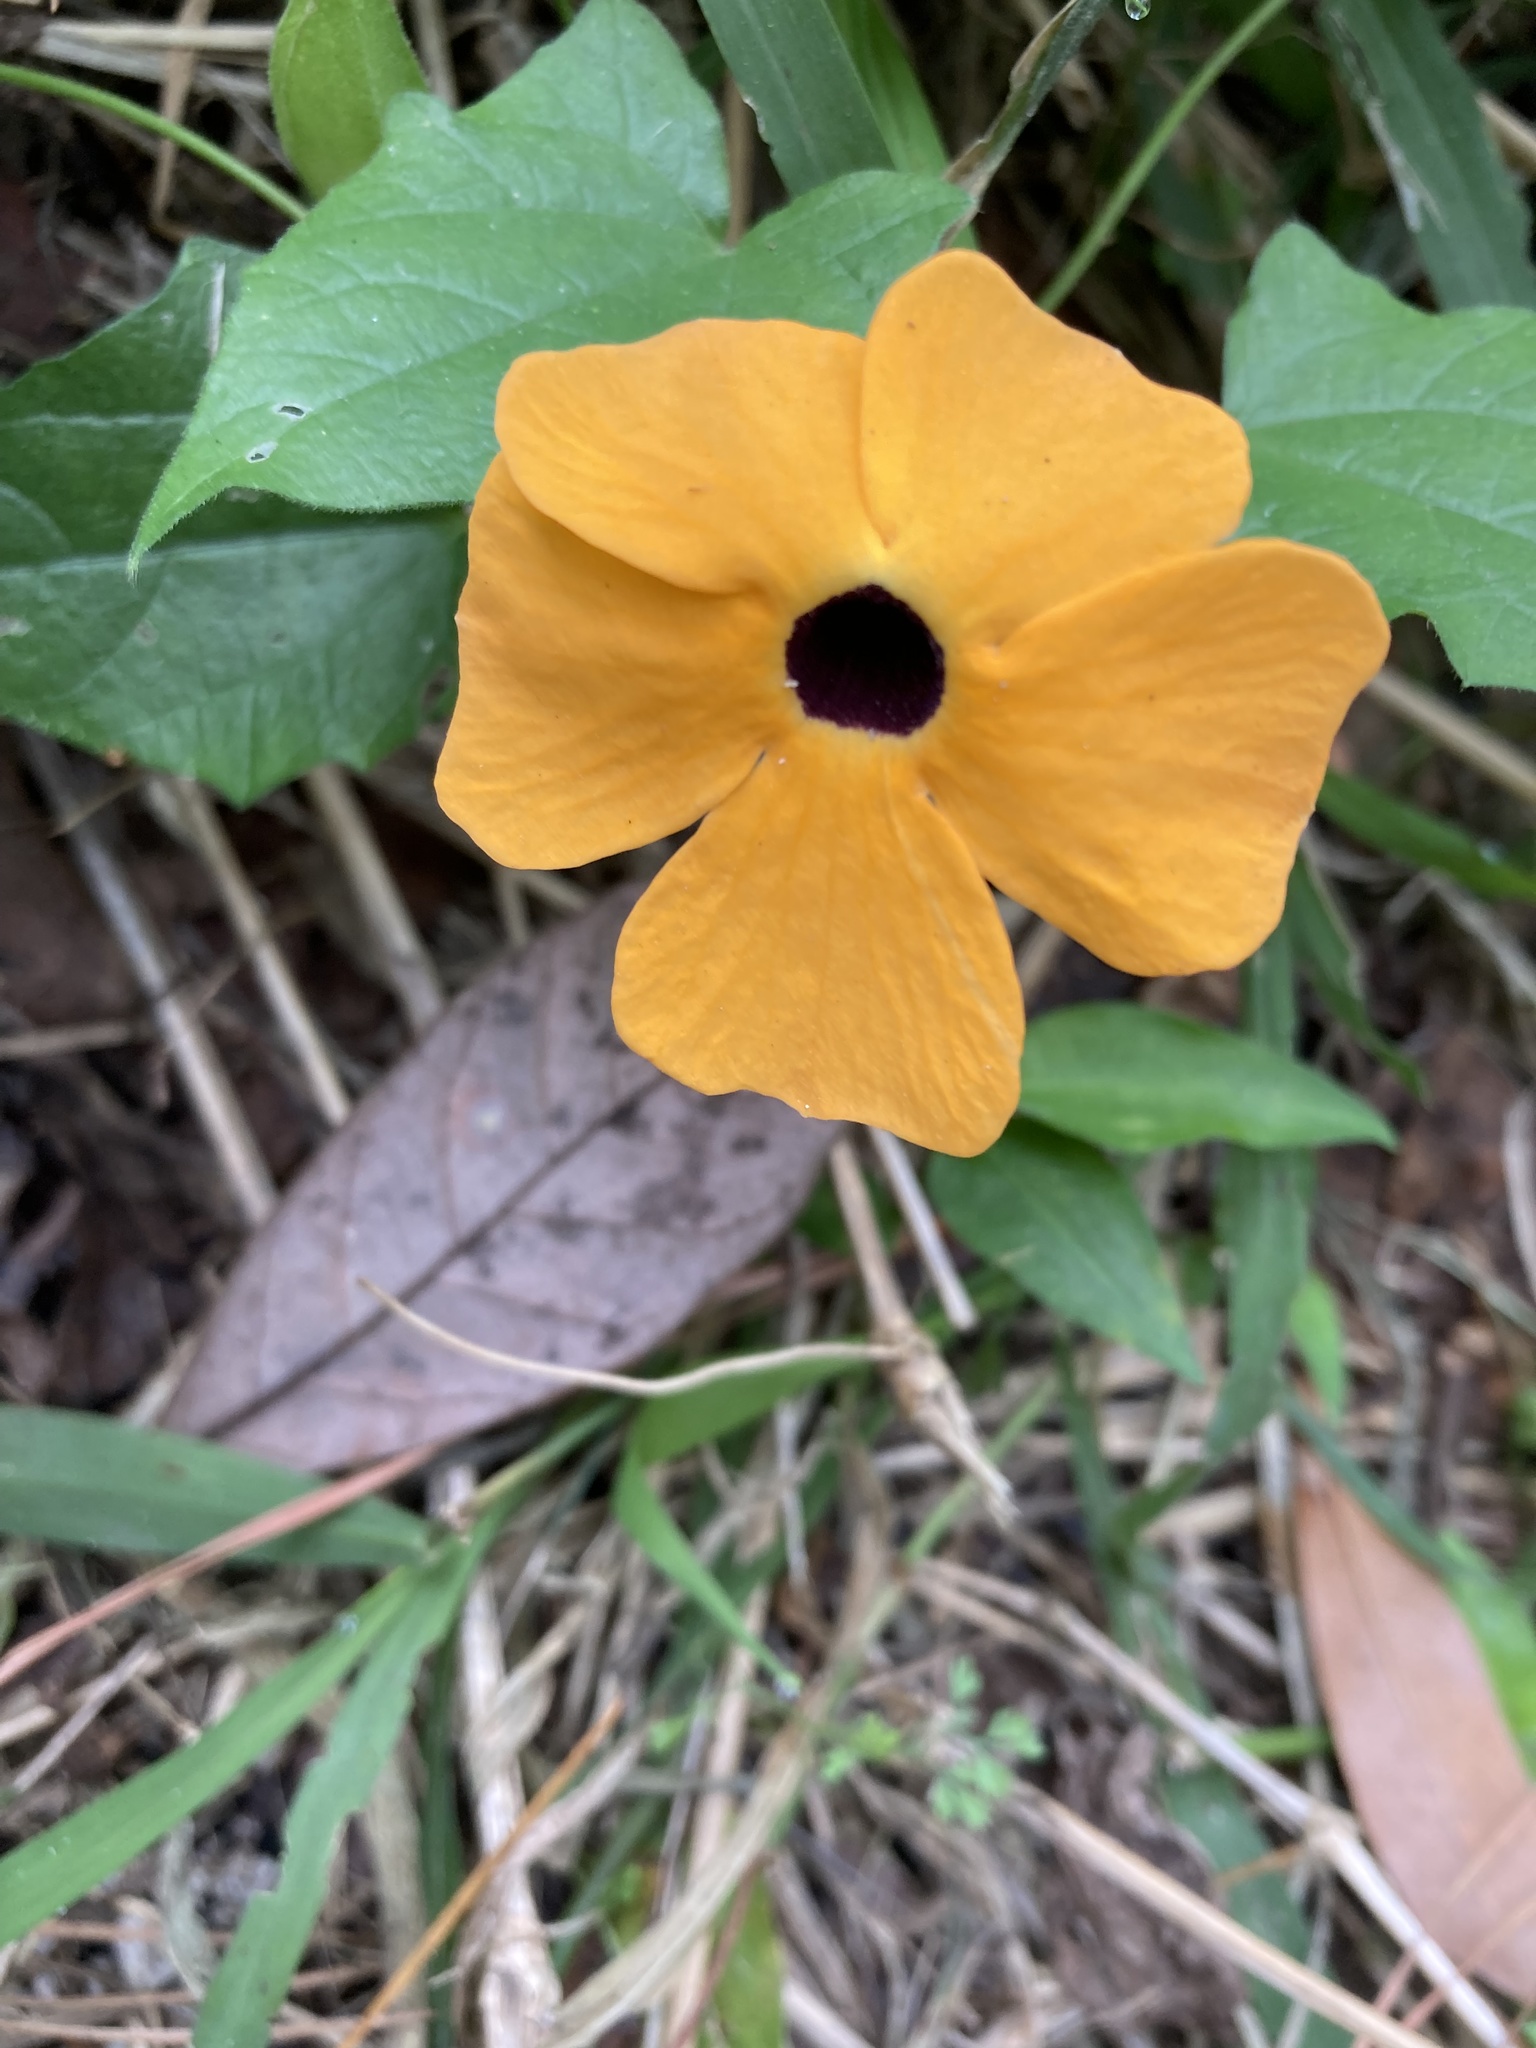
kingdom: Plantae
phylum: Tracheophyta
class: Magnoliopsida
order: Lamiales
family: Acanthaceae
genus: Thunbergia
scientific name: Thunbergia alata
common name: Blackeyed susan vine
